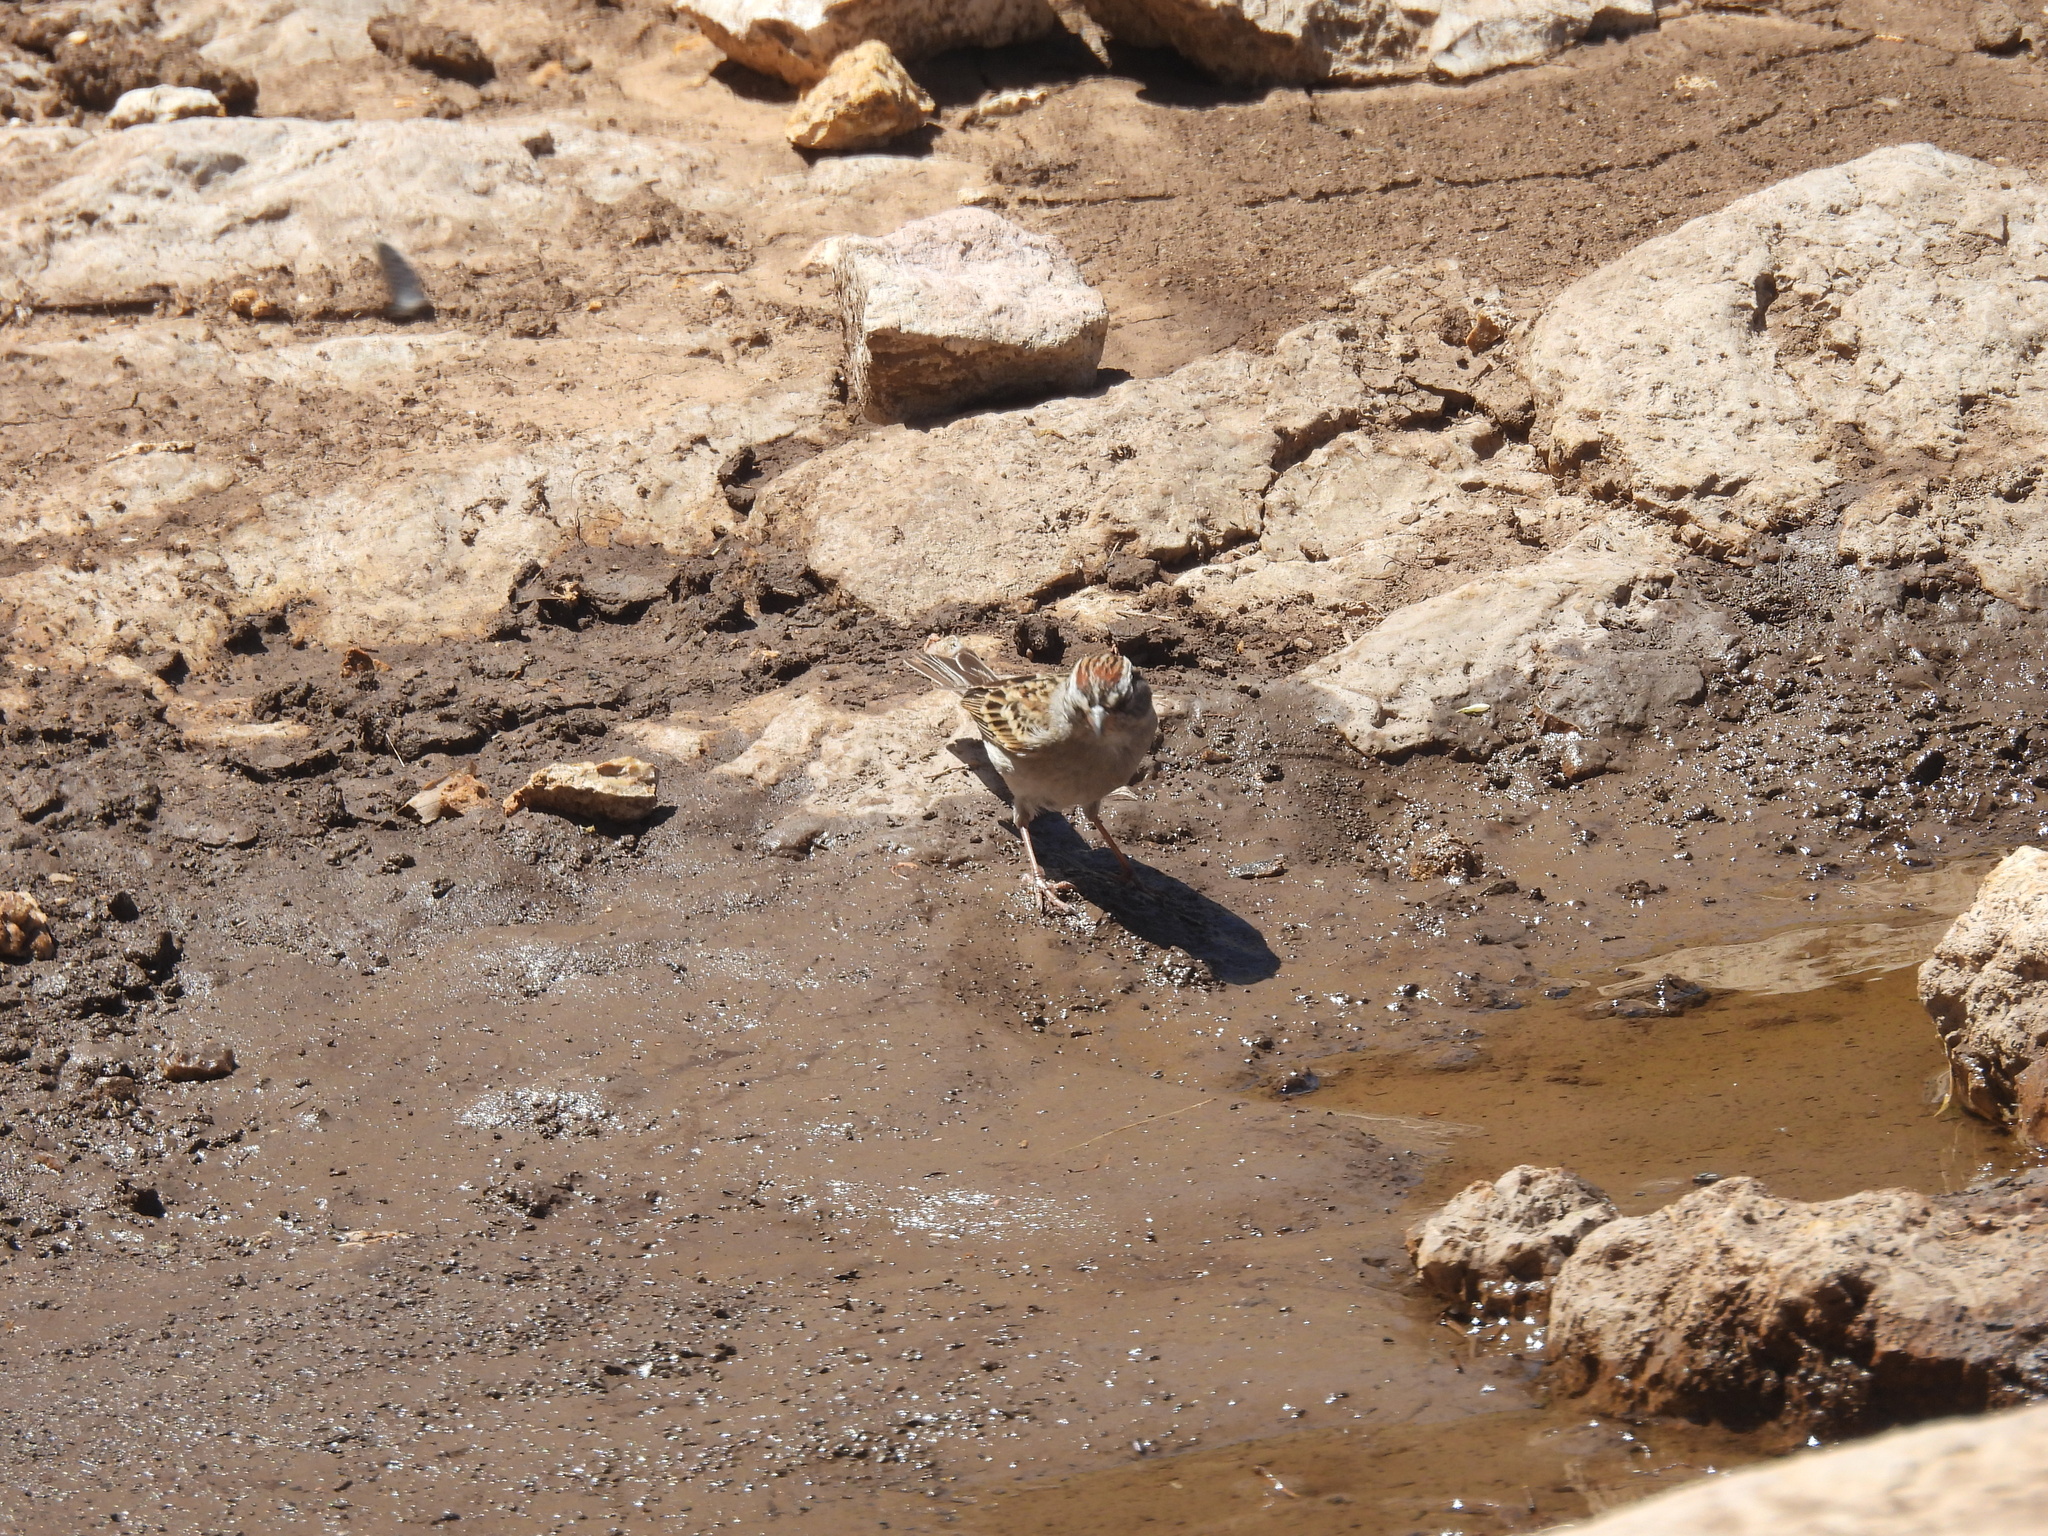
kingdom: Animalia
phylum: Chordata
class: Aves
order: Passeriformes
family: Passerellidae
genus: Spizella
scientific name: Spizella passerina
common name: Chipping sparrow
